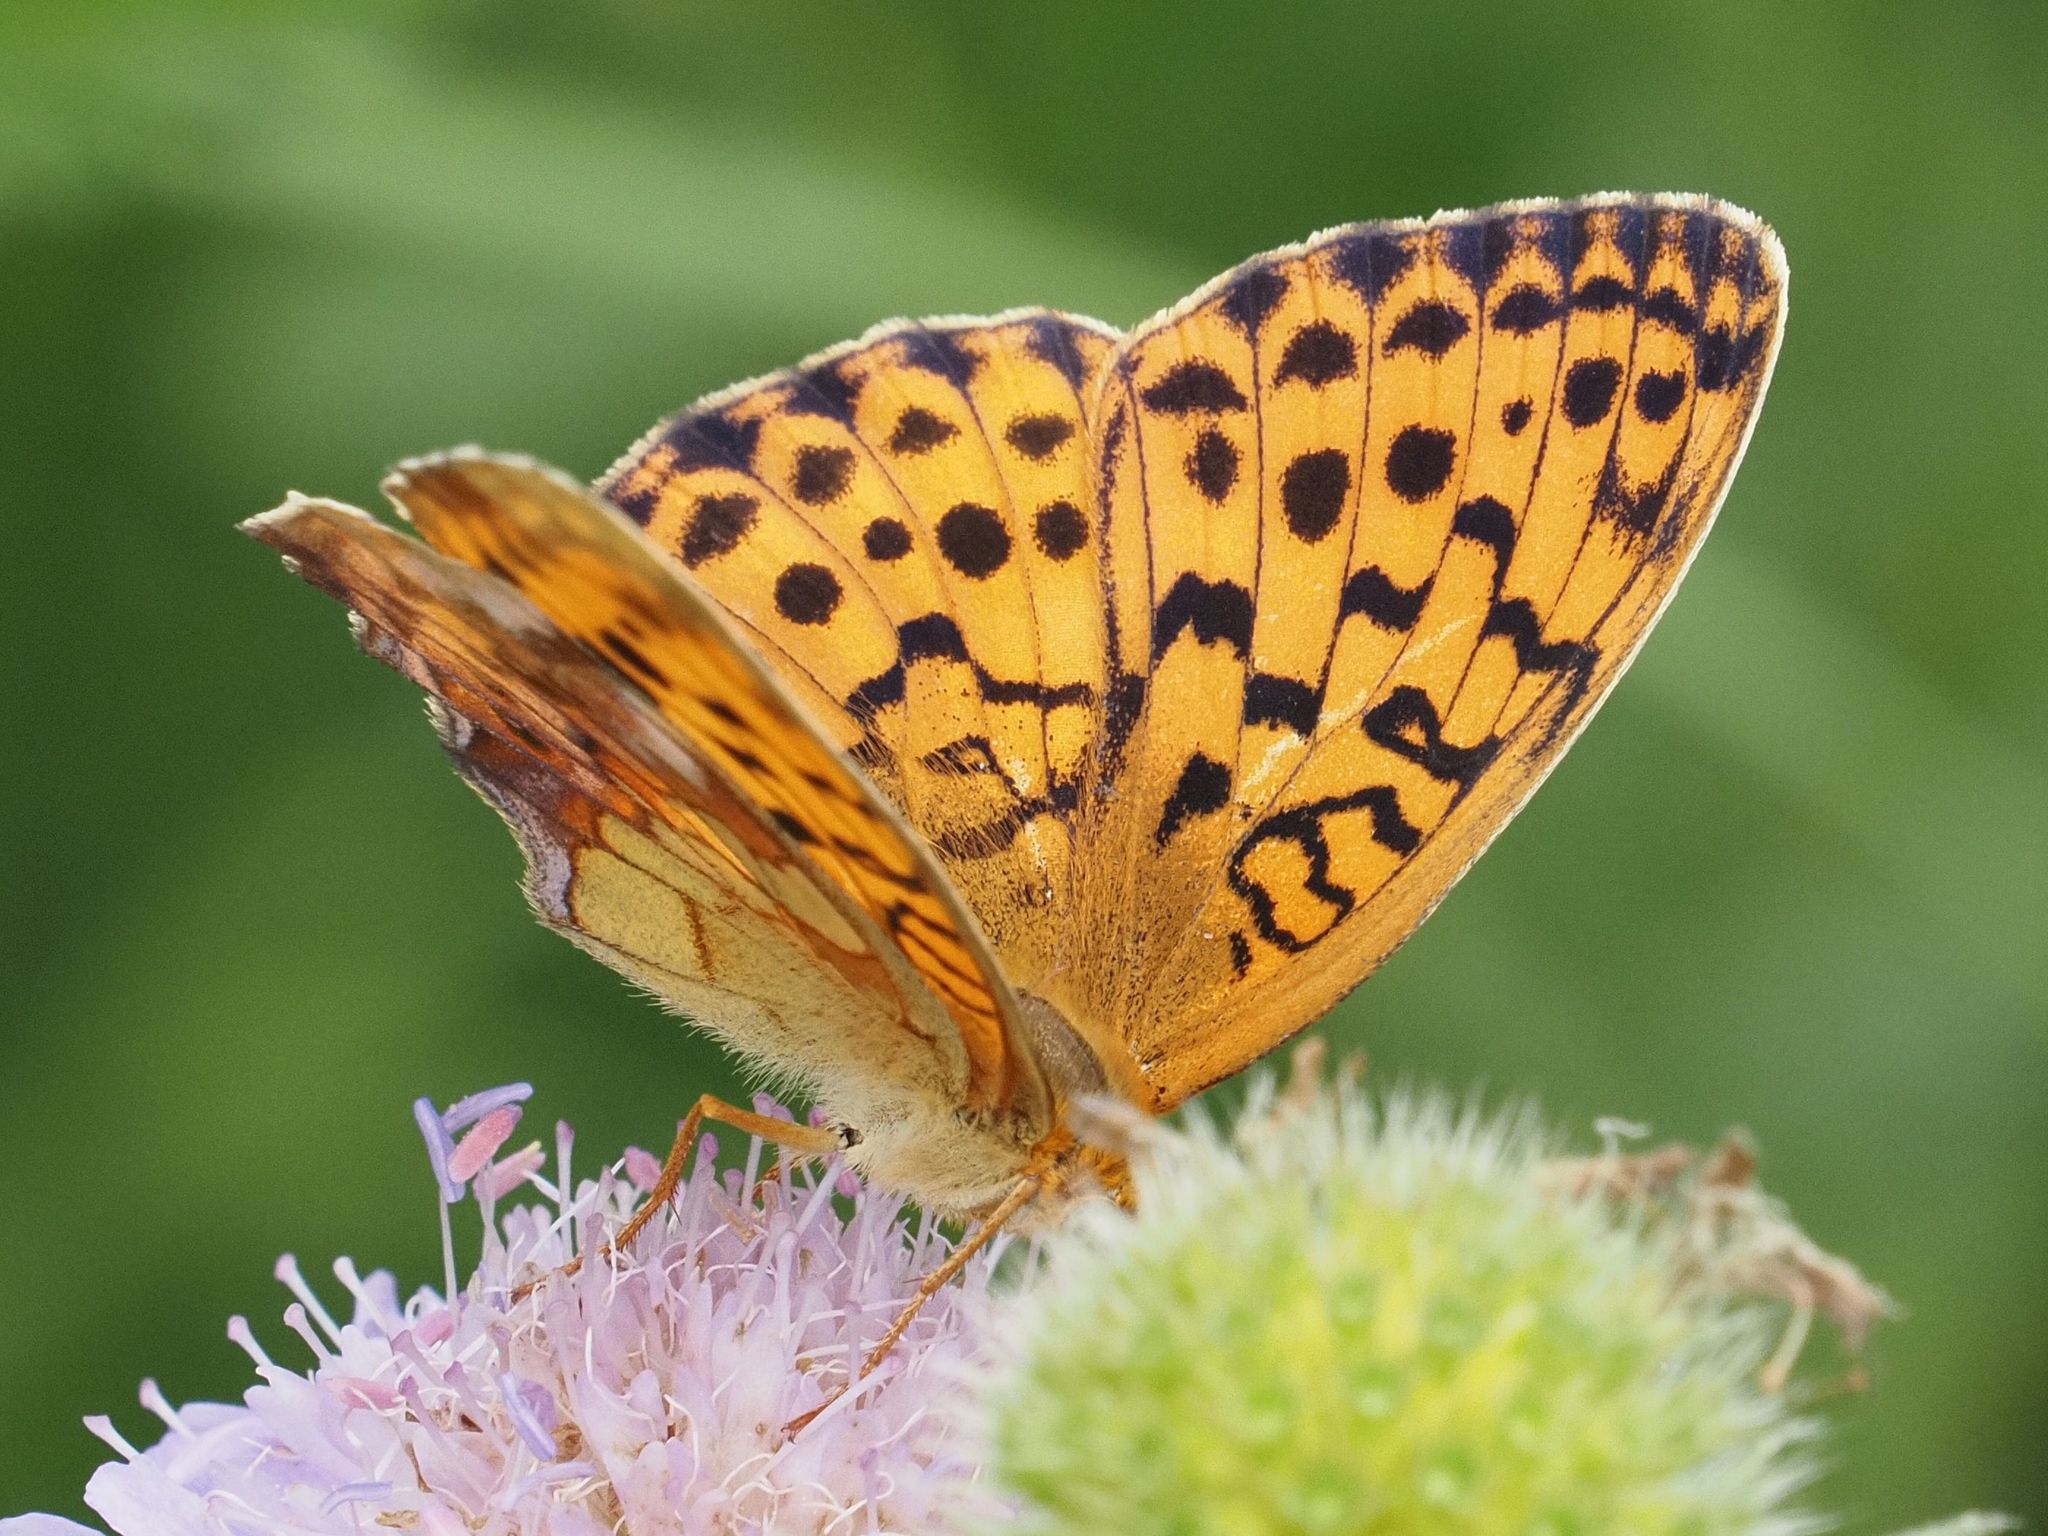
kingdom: Animalia
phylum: Arthropoda
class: Insecta
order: Lepidoptera
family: Nymphalidae
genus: Brenthis
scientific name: Brenthis daphne
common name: Marbled fritillary
